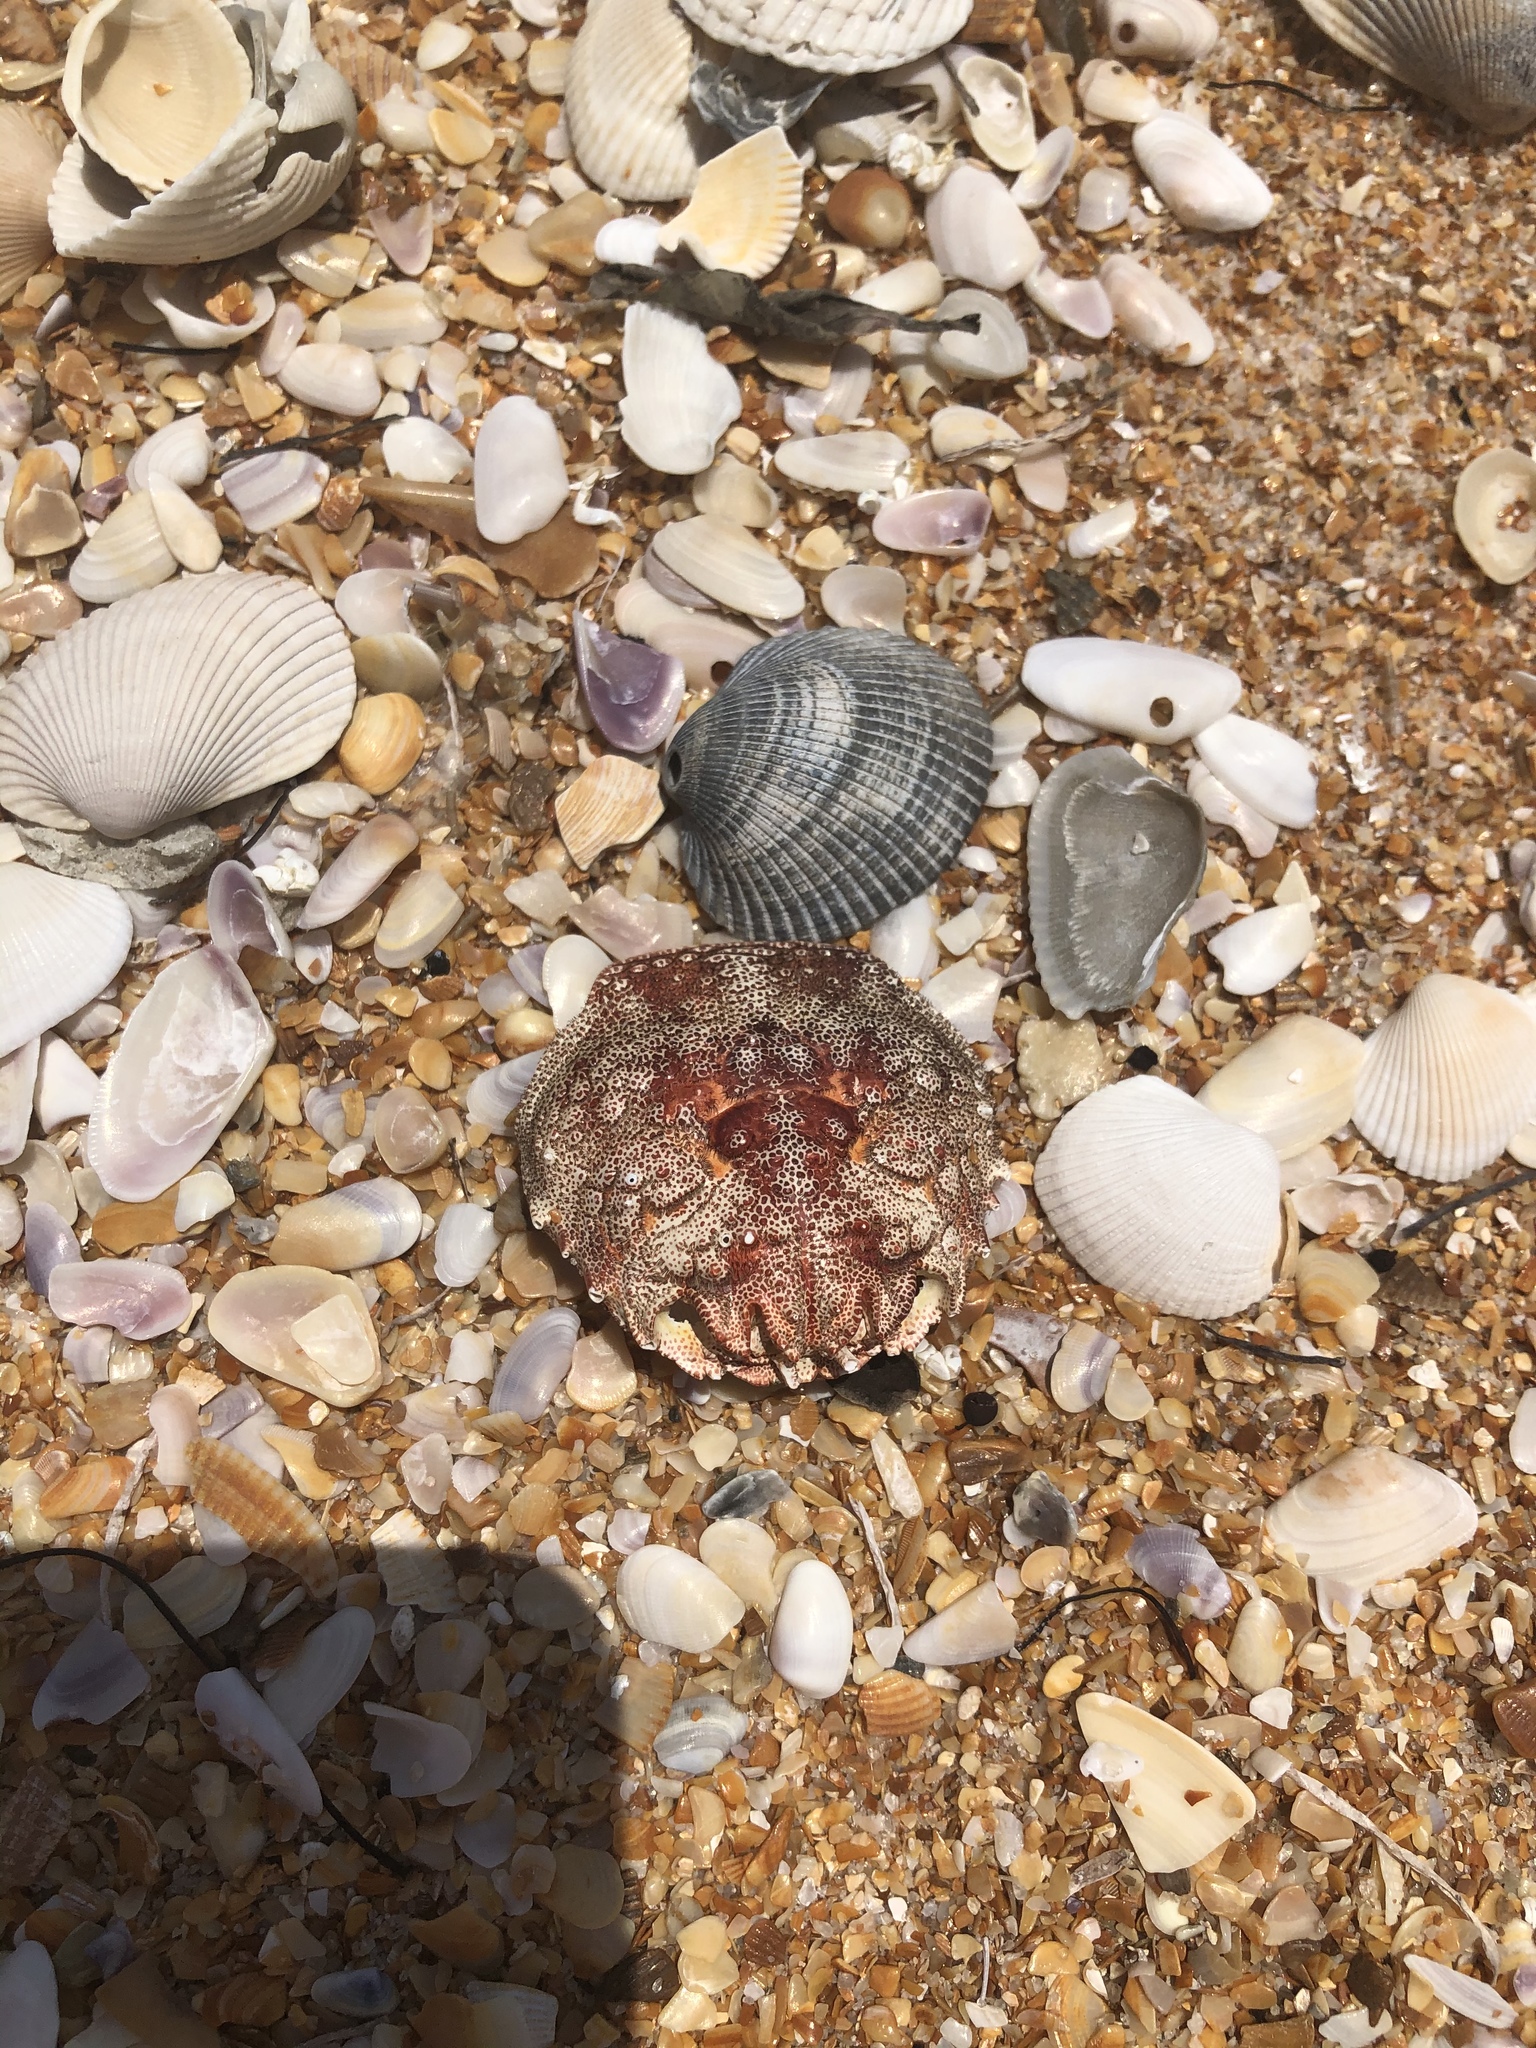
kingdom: Animalia
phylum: Arthropoda
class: Malacostraca
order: Decapoda
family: Plagusiidae
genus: Plagusia
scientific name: Plagusia depressa
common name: Flattened crab
